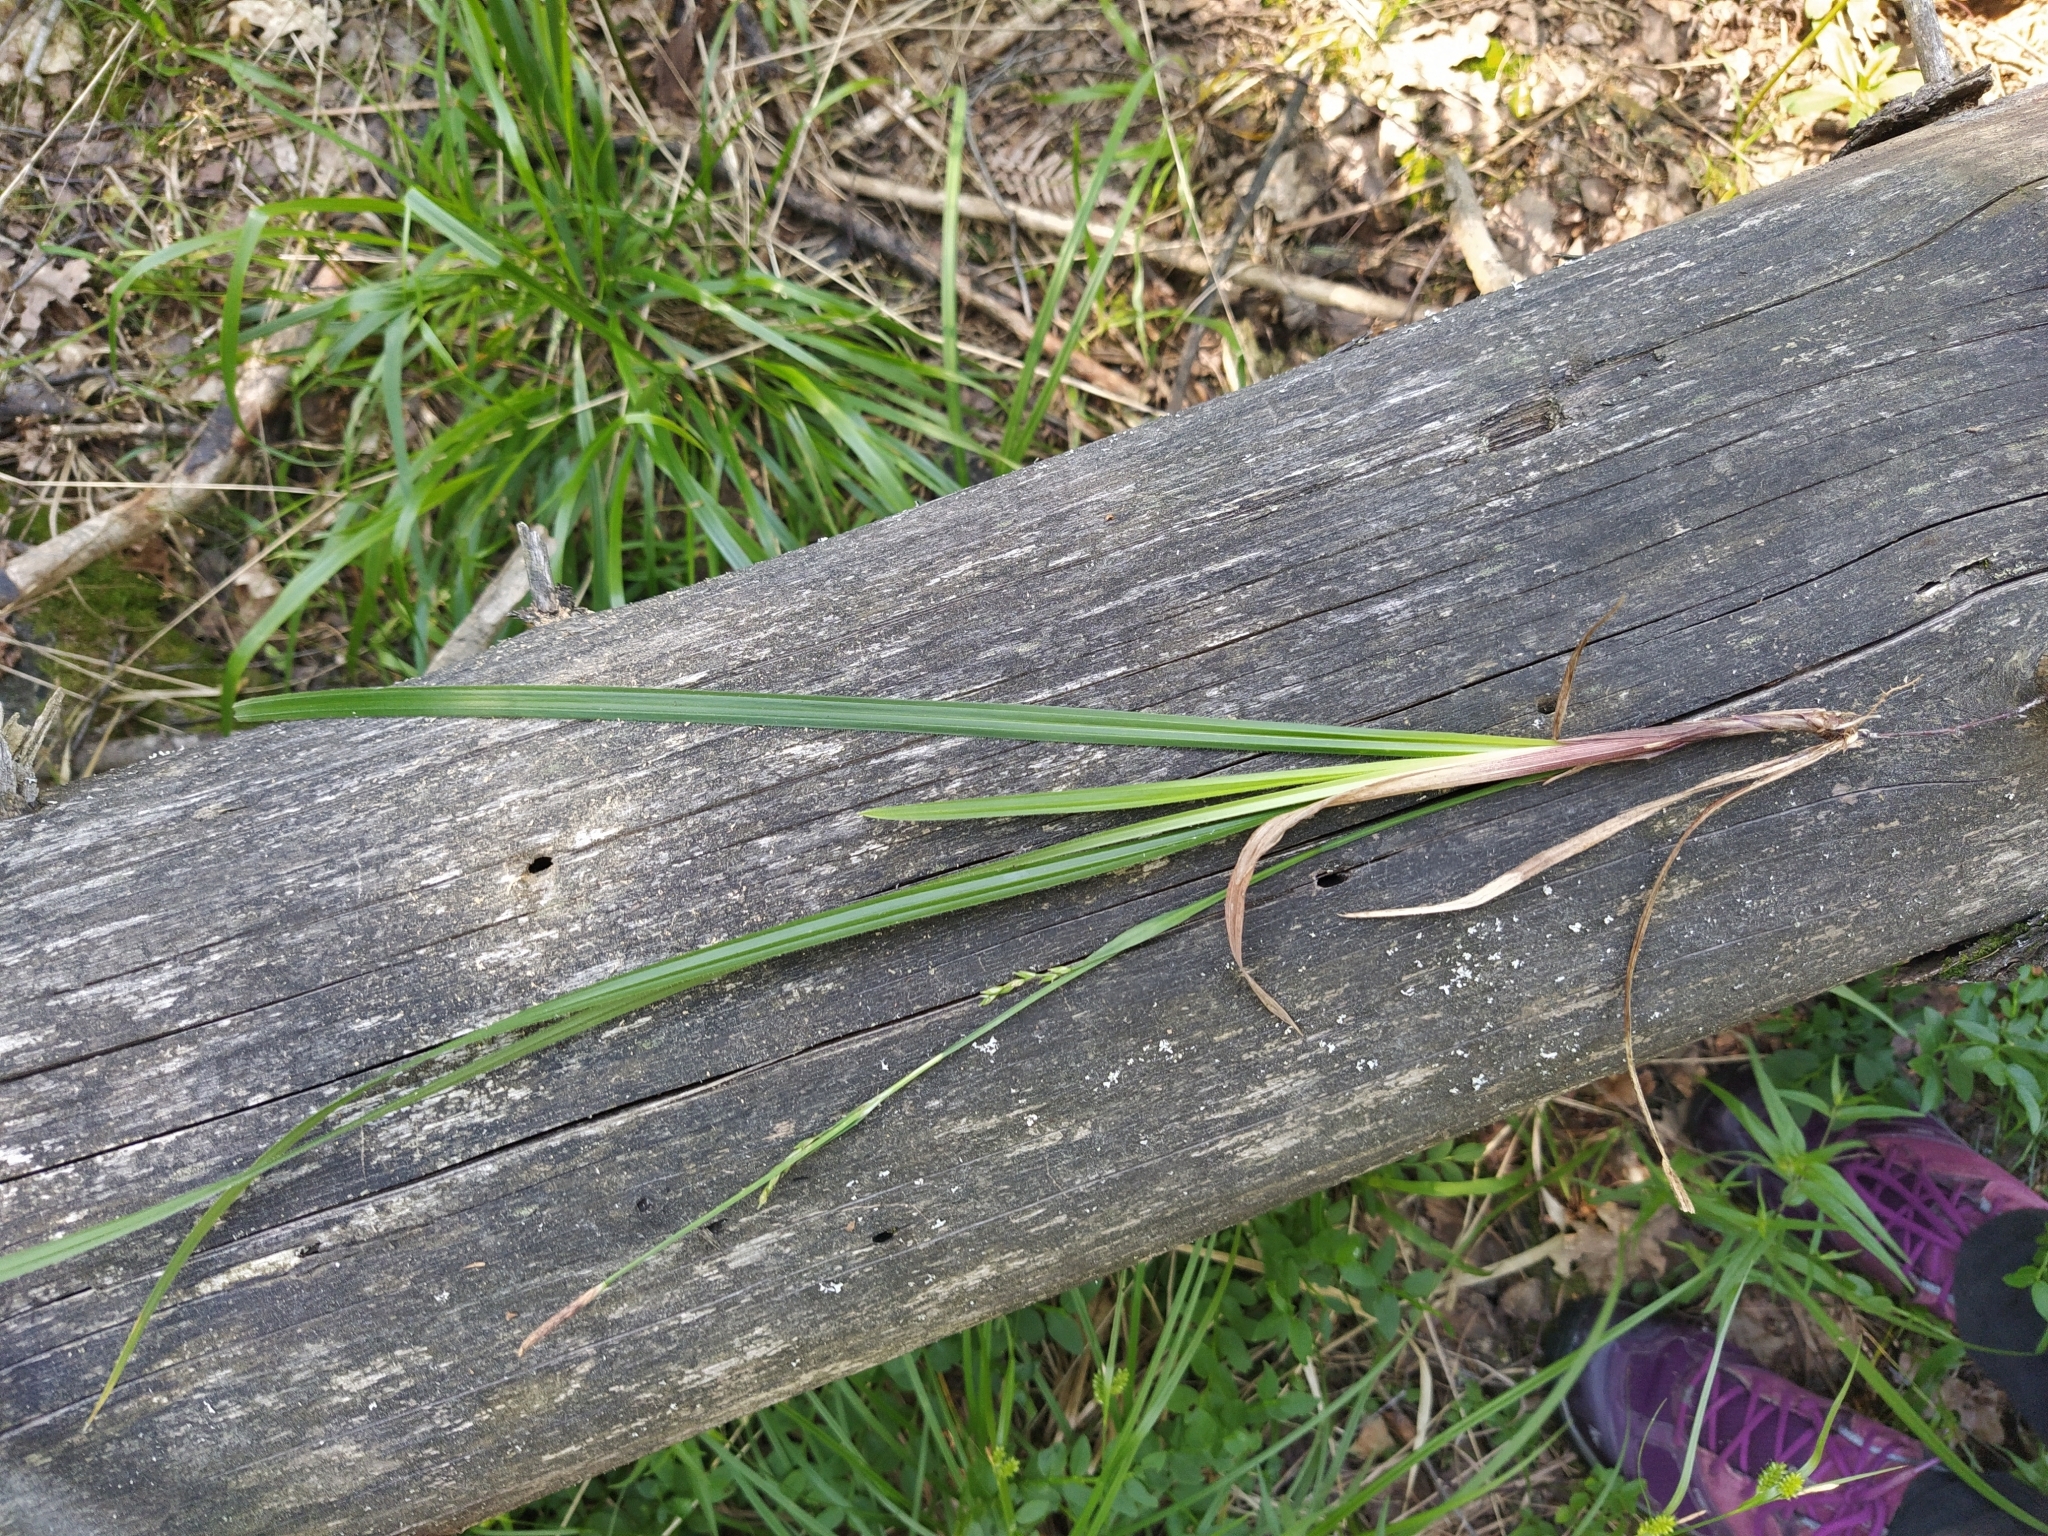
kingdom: Plantae
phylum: Tracheophyta
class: Liliopsida
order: Poales
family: Cyperaceae
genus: Carex
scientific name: Carex pilosa
